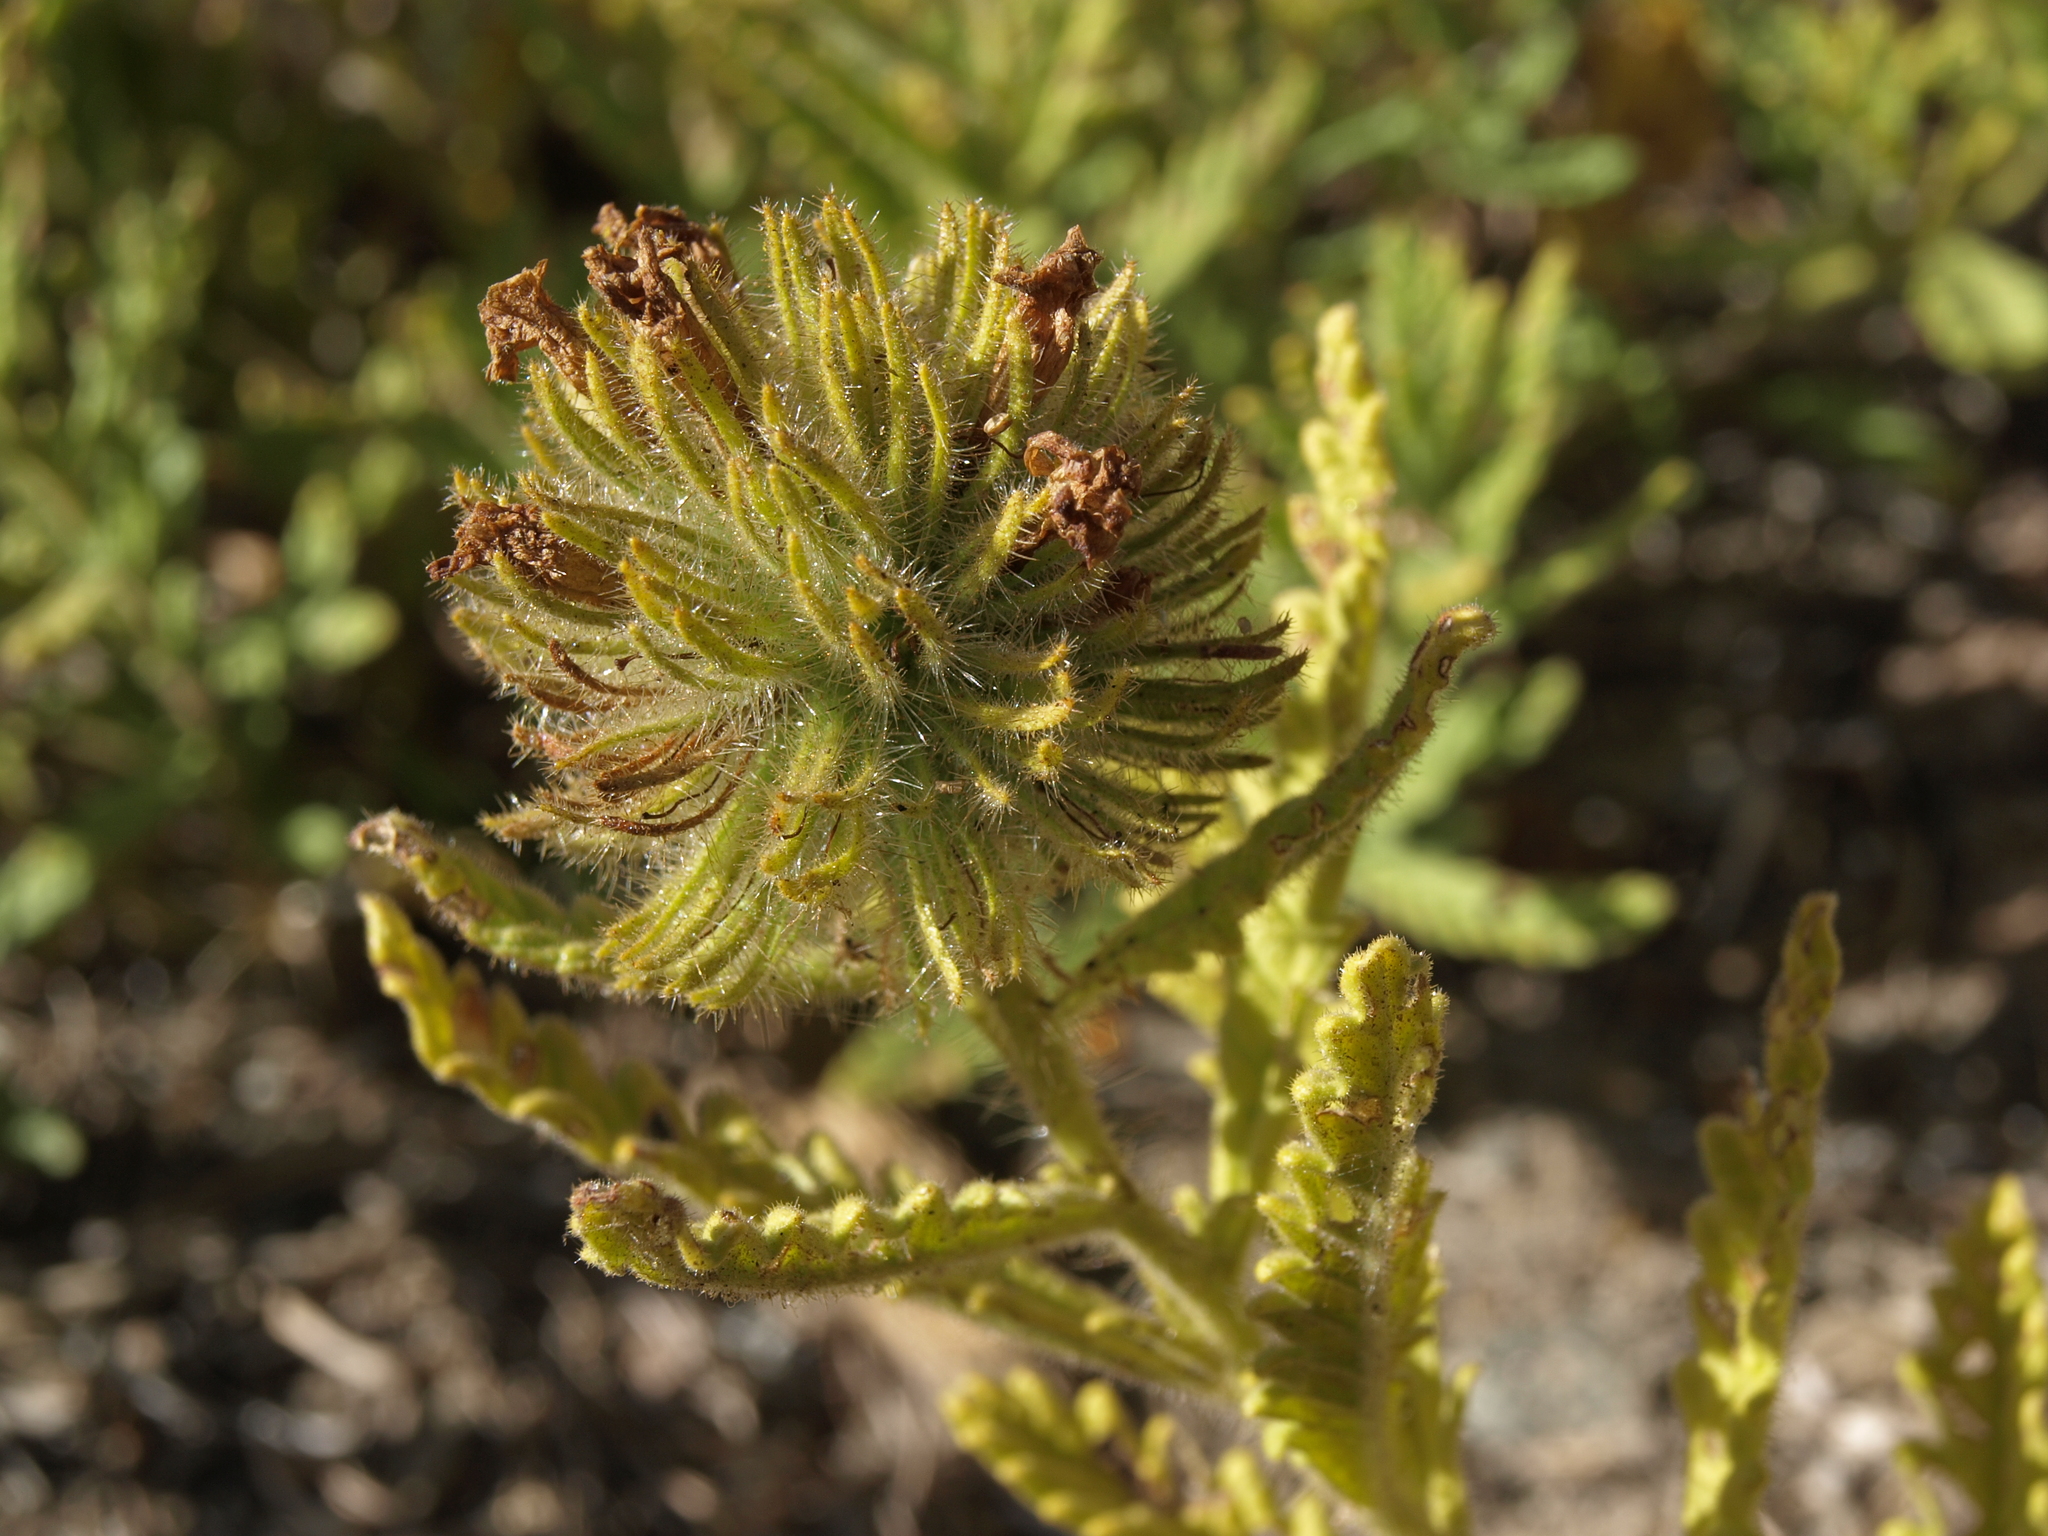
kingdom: Plantae
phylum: Tracheophyta
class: Magnoliopsida
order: Boraginales
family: Namaceae
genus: Nama
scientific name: Nama rothrockii
